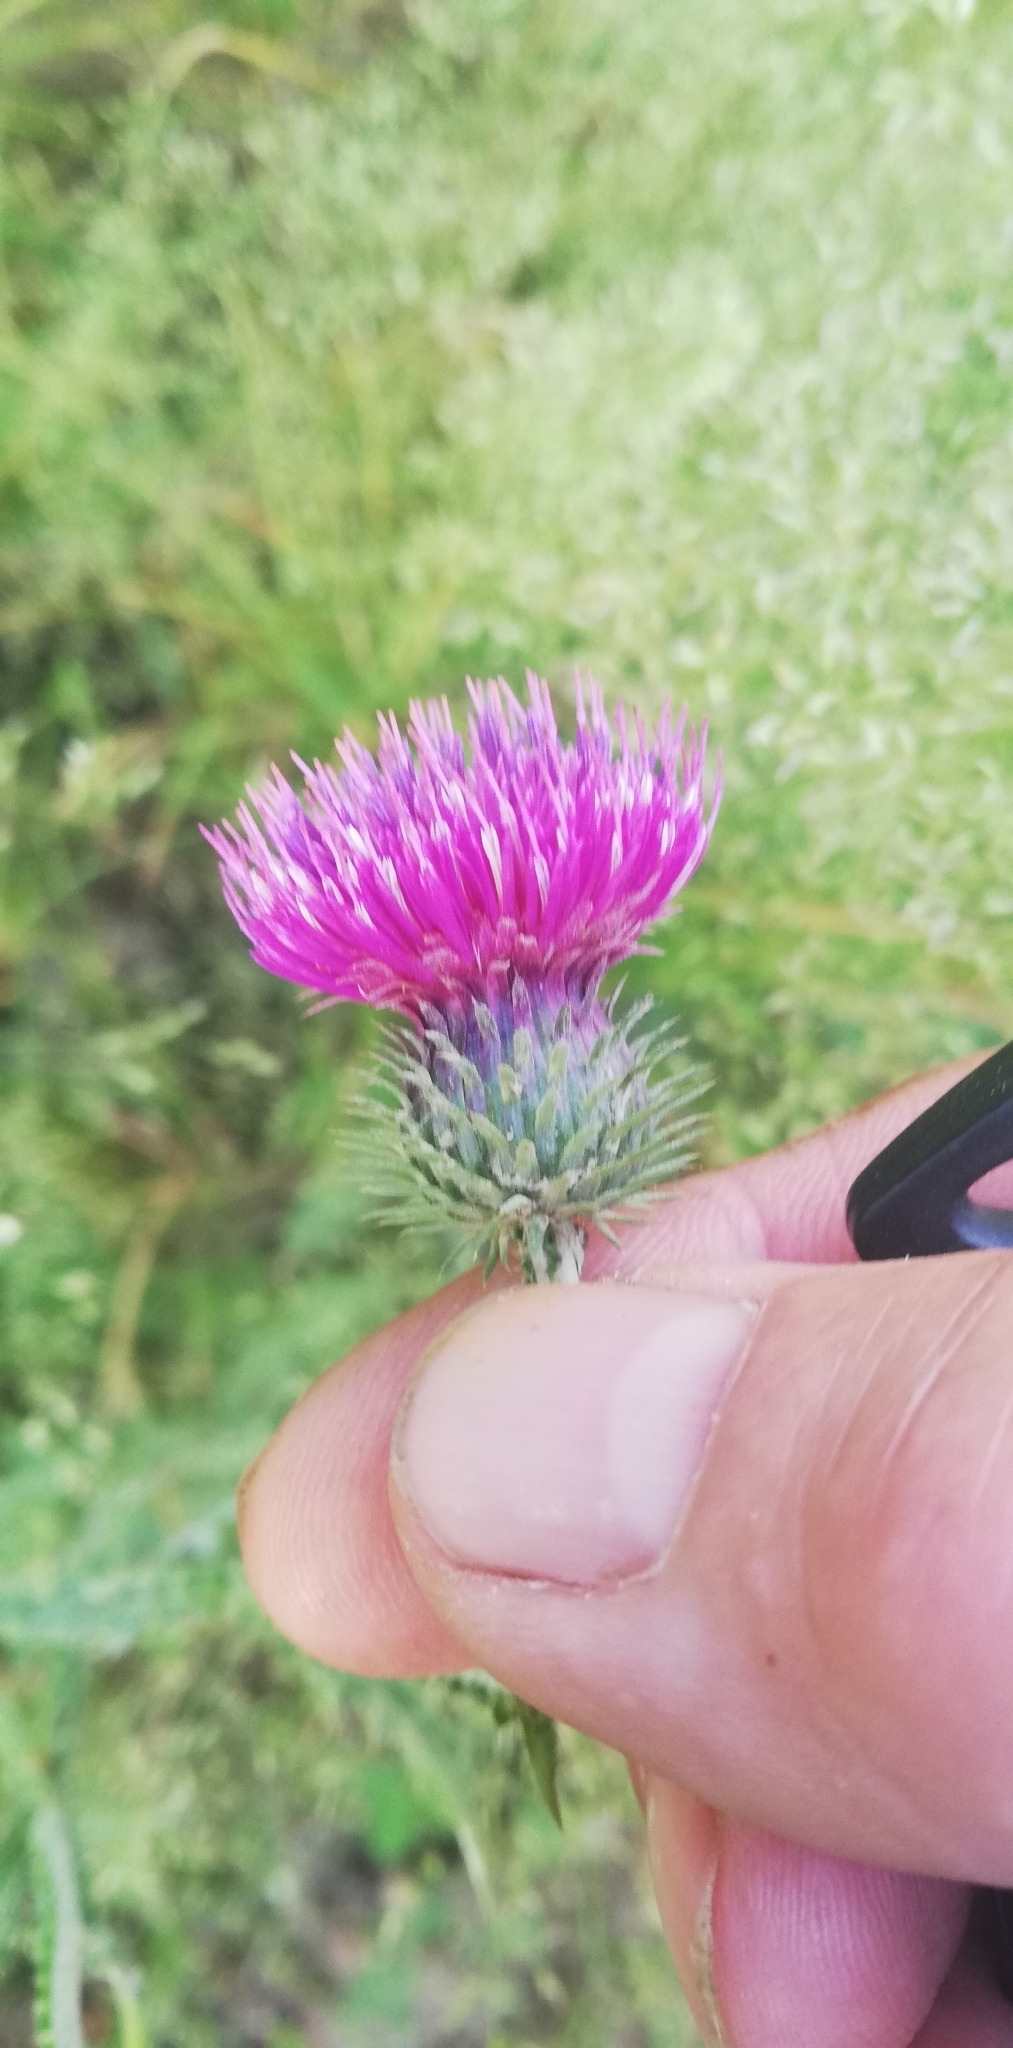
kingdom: Plantae
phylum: Tracheophyta
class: Magnoliopsida
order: Asterales
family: Asteraceae
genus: Carduus
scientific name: Carduus acanthoides
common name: Plumeless thistle
